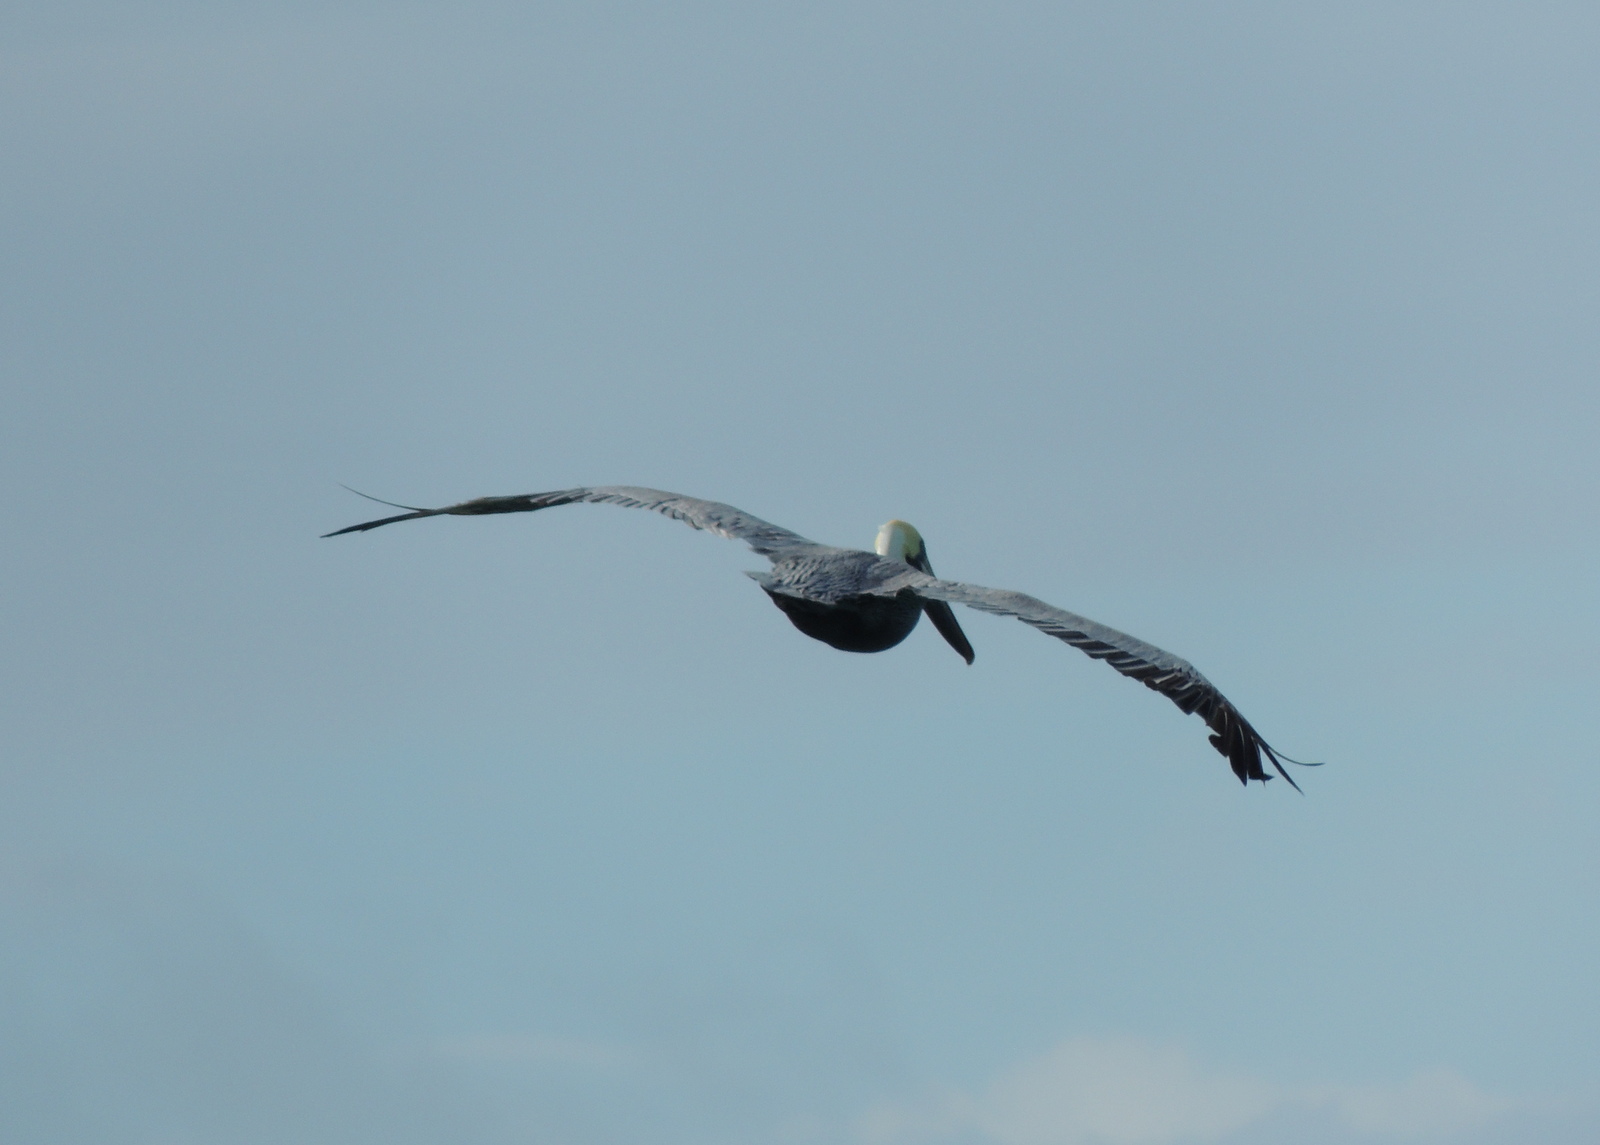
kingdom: Animalia
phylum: Chordata
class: Aves
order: Pelecaniformes
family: Pelecanidae
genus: Pelecanus
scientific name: Pelecanus occidentalis
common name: Brown pelican
